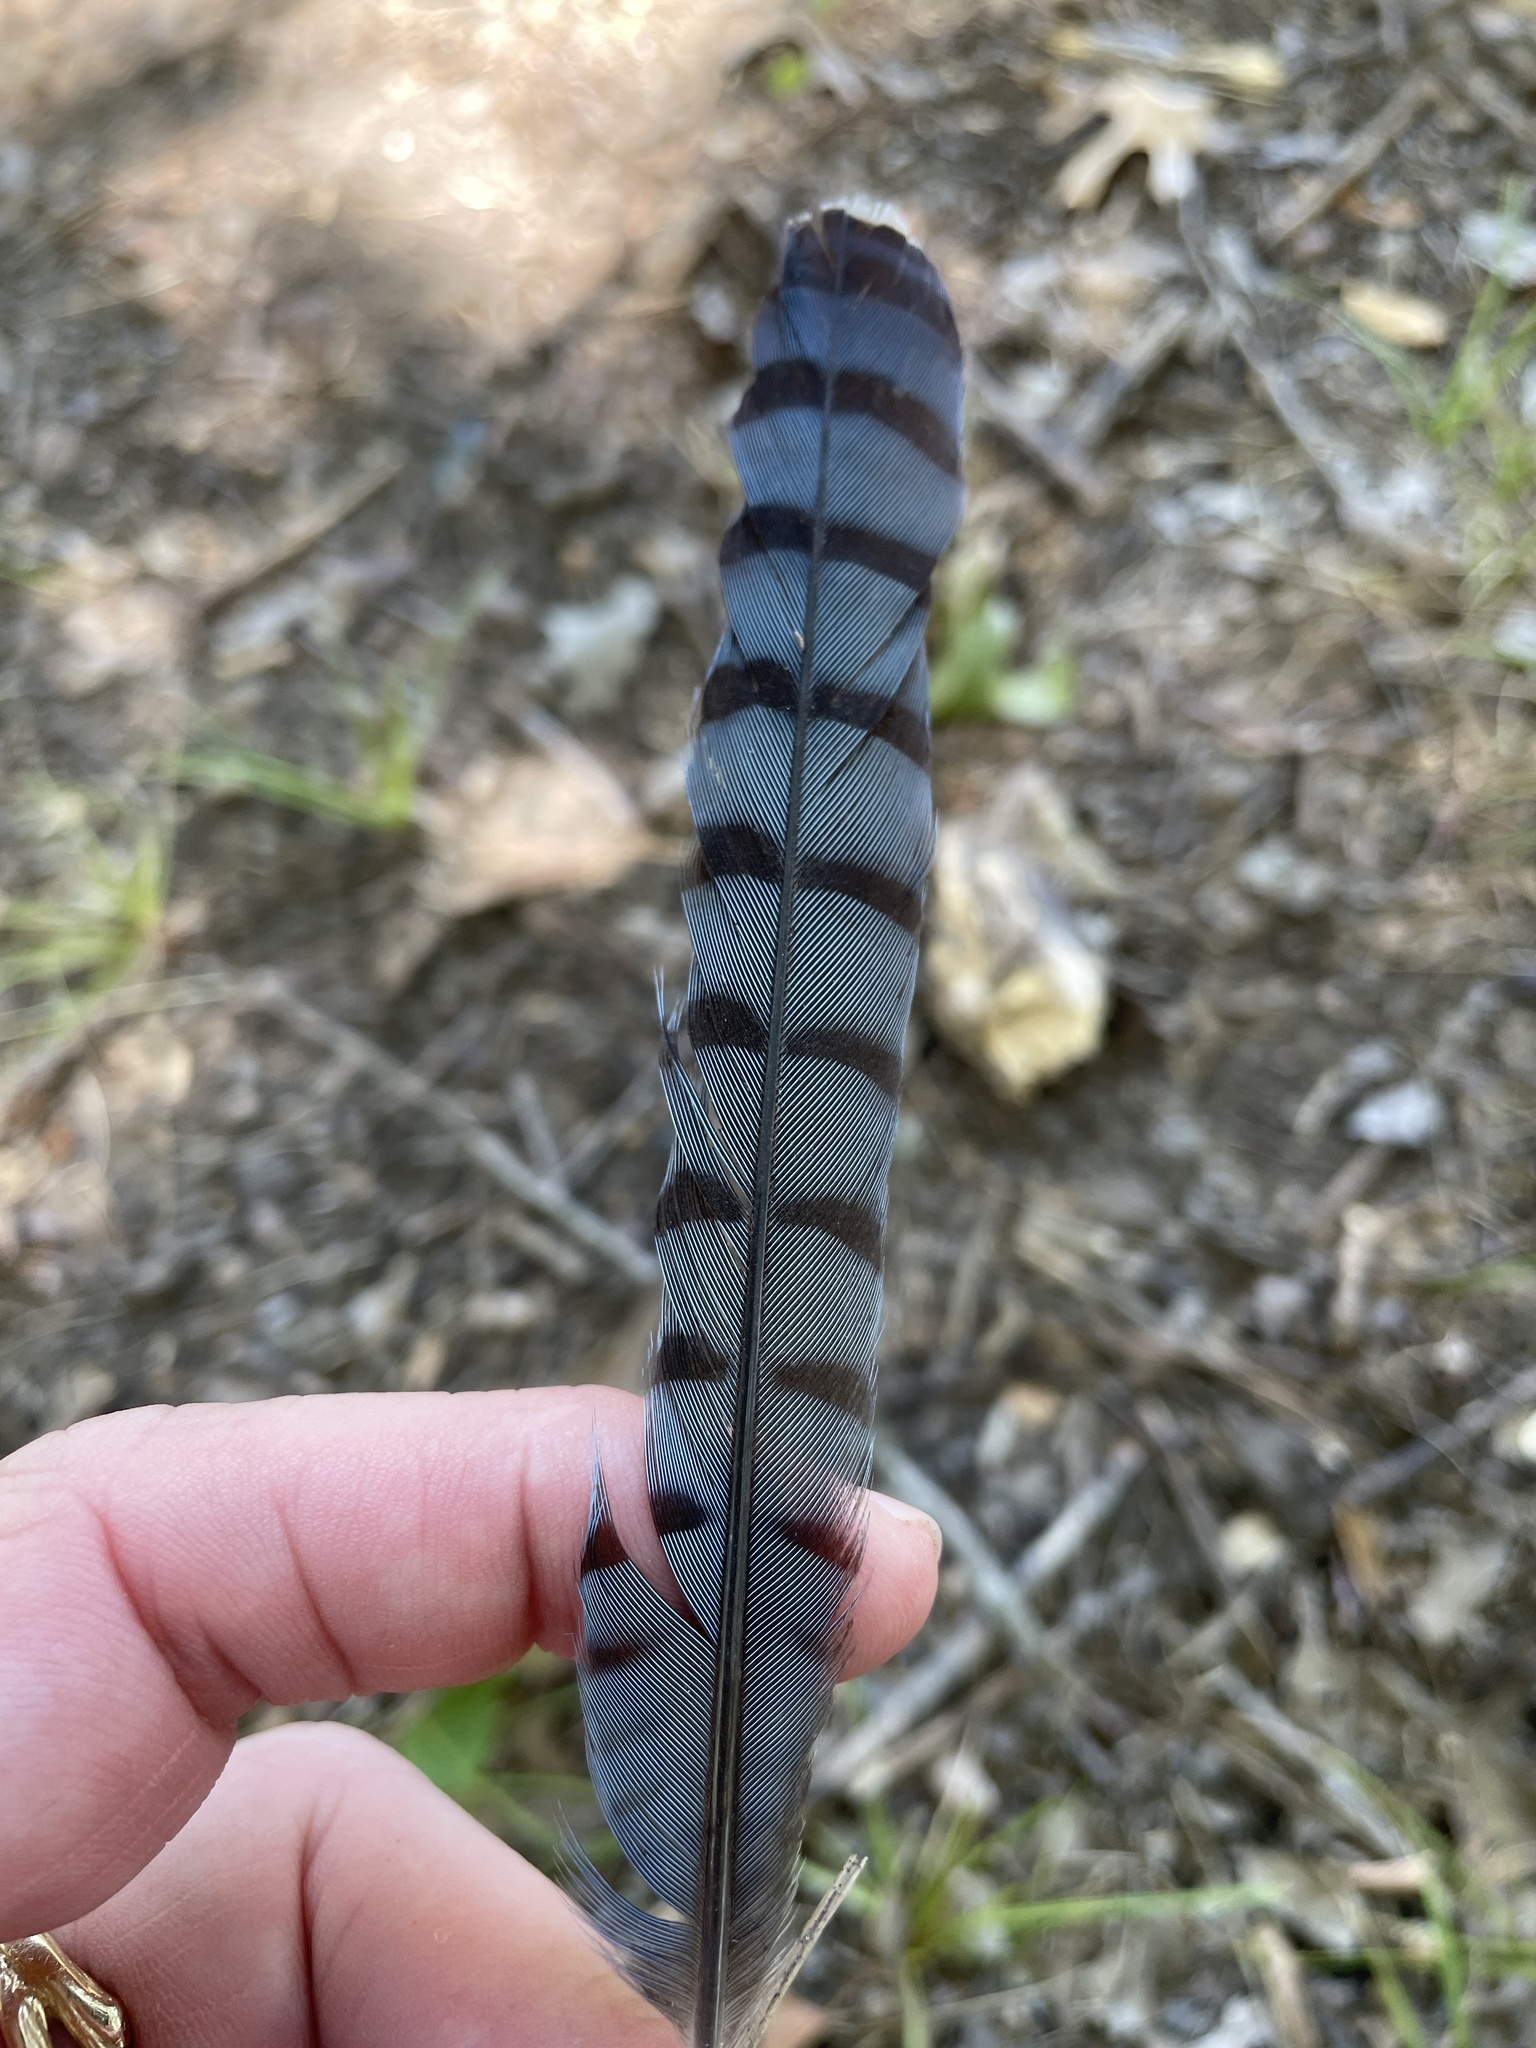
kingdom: Animalia
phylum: Chordata
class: Aves
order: Passeriformes
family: Corvidae
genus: Cyanocitta
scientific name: Cyanocitta cristata
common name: Blue jay
